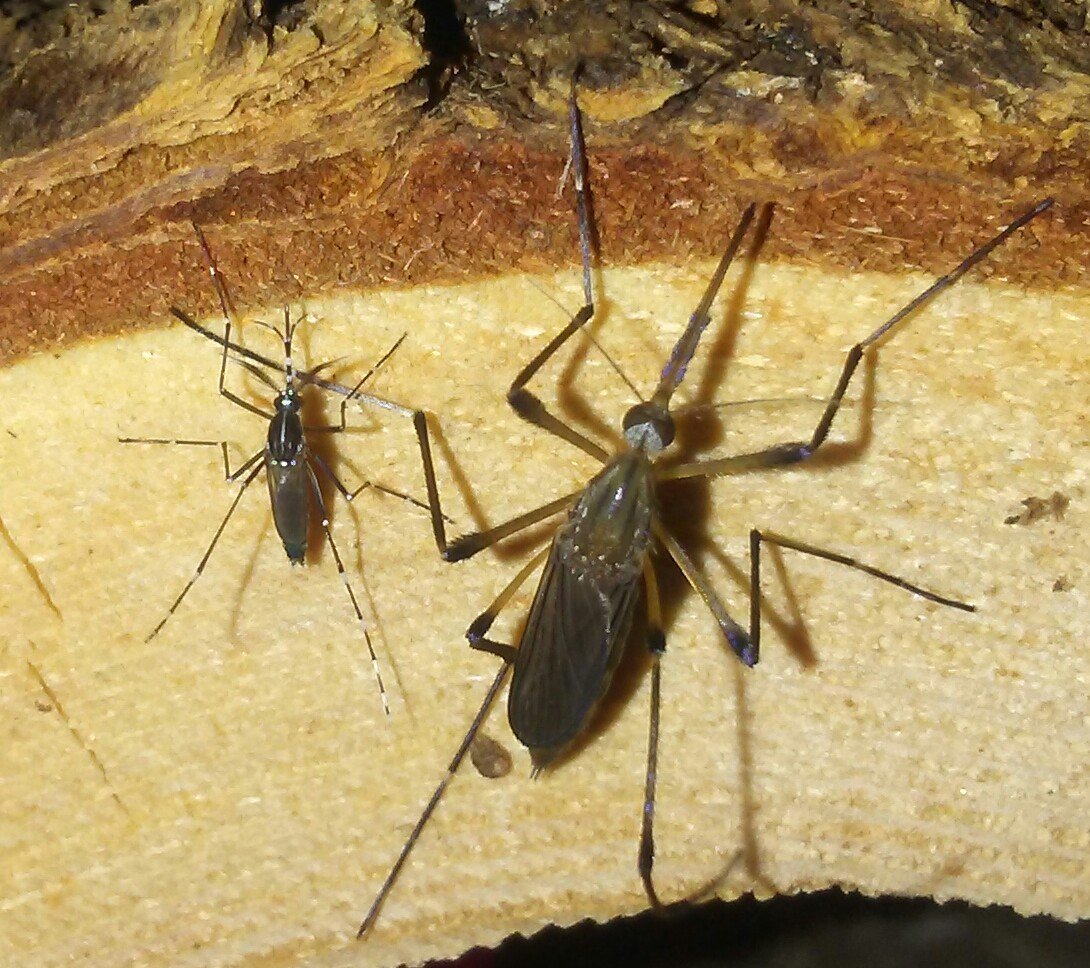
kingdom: Animalia
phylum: Arthropoda
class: Insecta
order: Diptera
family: Culicidae
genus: Psorophora
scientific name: Psorophora howardii
